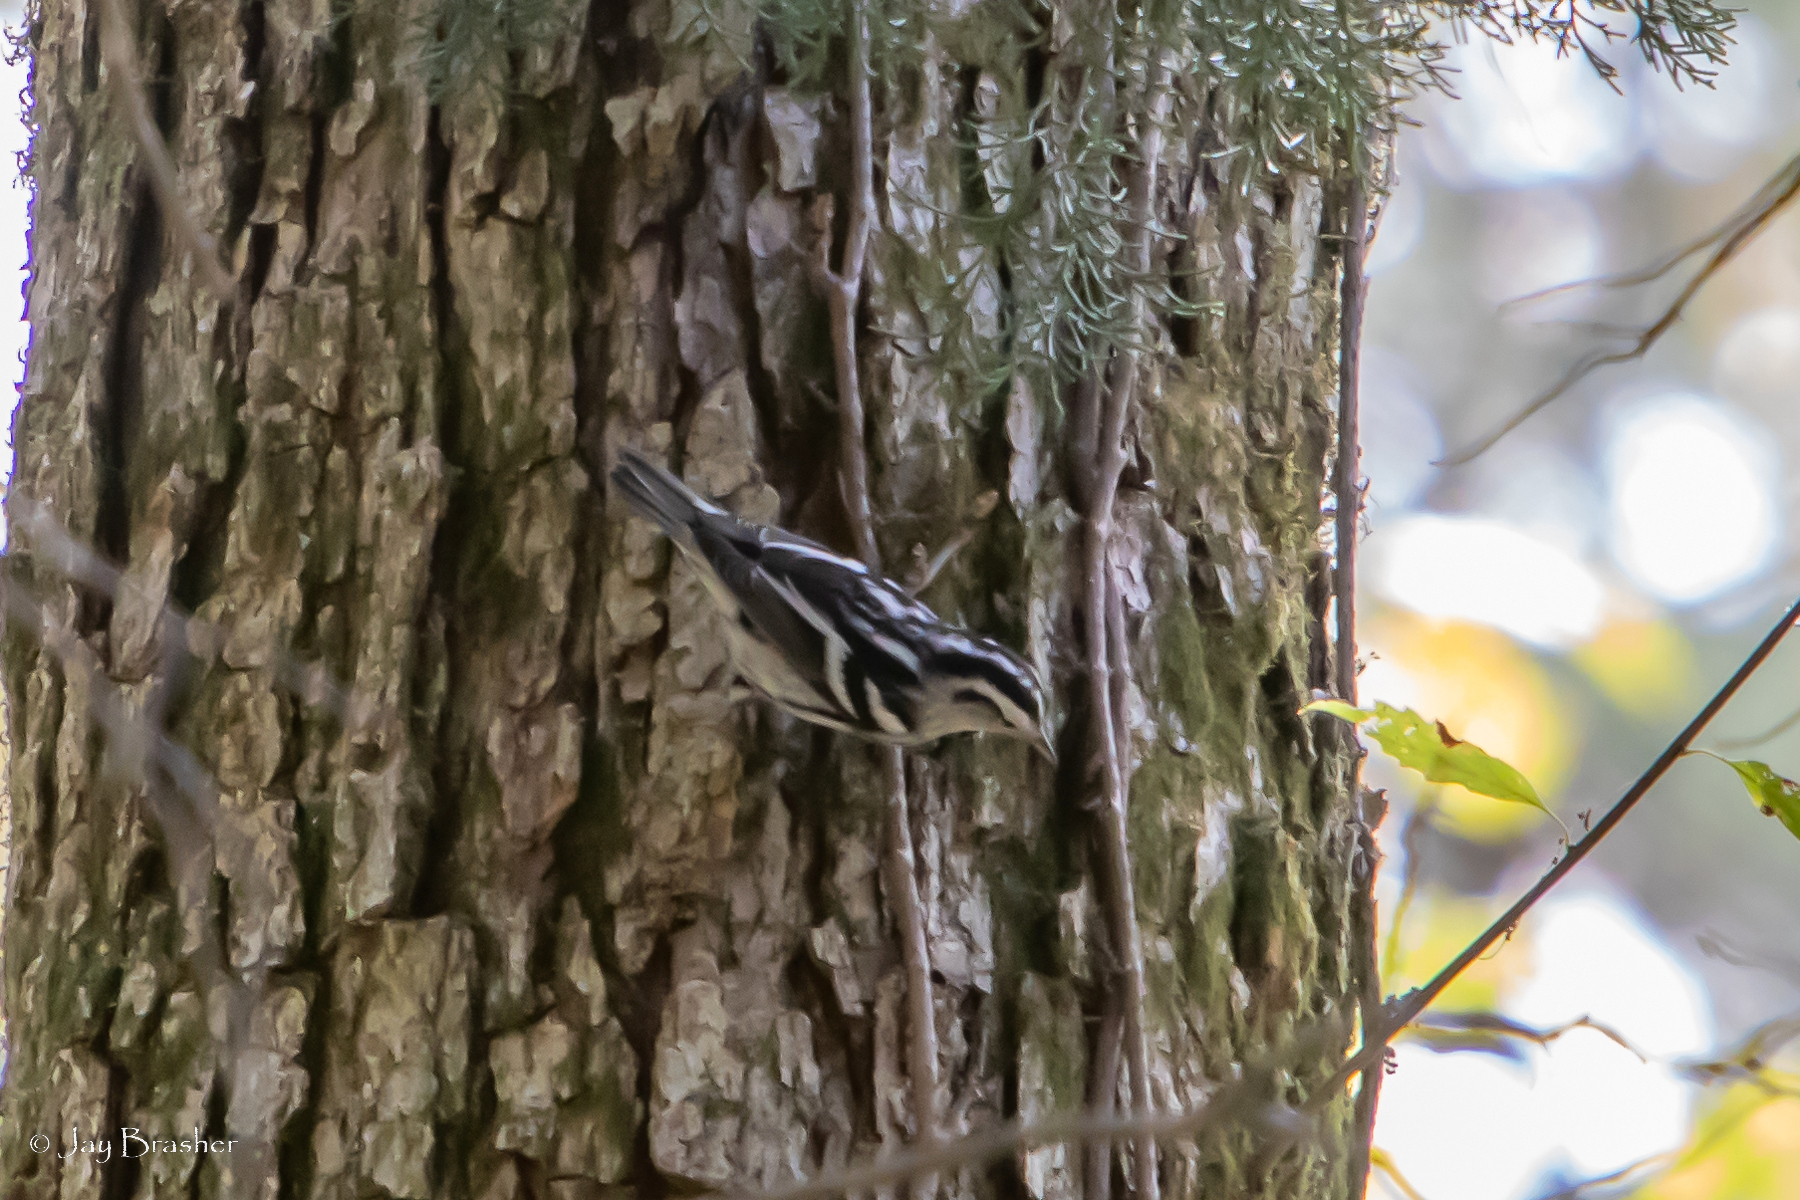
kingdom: Animalia
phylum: Chordata
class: Aves
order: Passeriformes
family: Parulidae
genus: Mniotilta
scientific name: Mniotilta varia
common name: Black-and-white warbler
